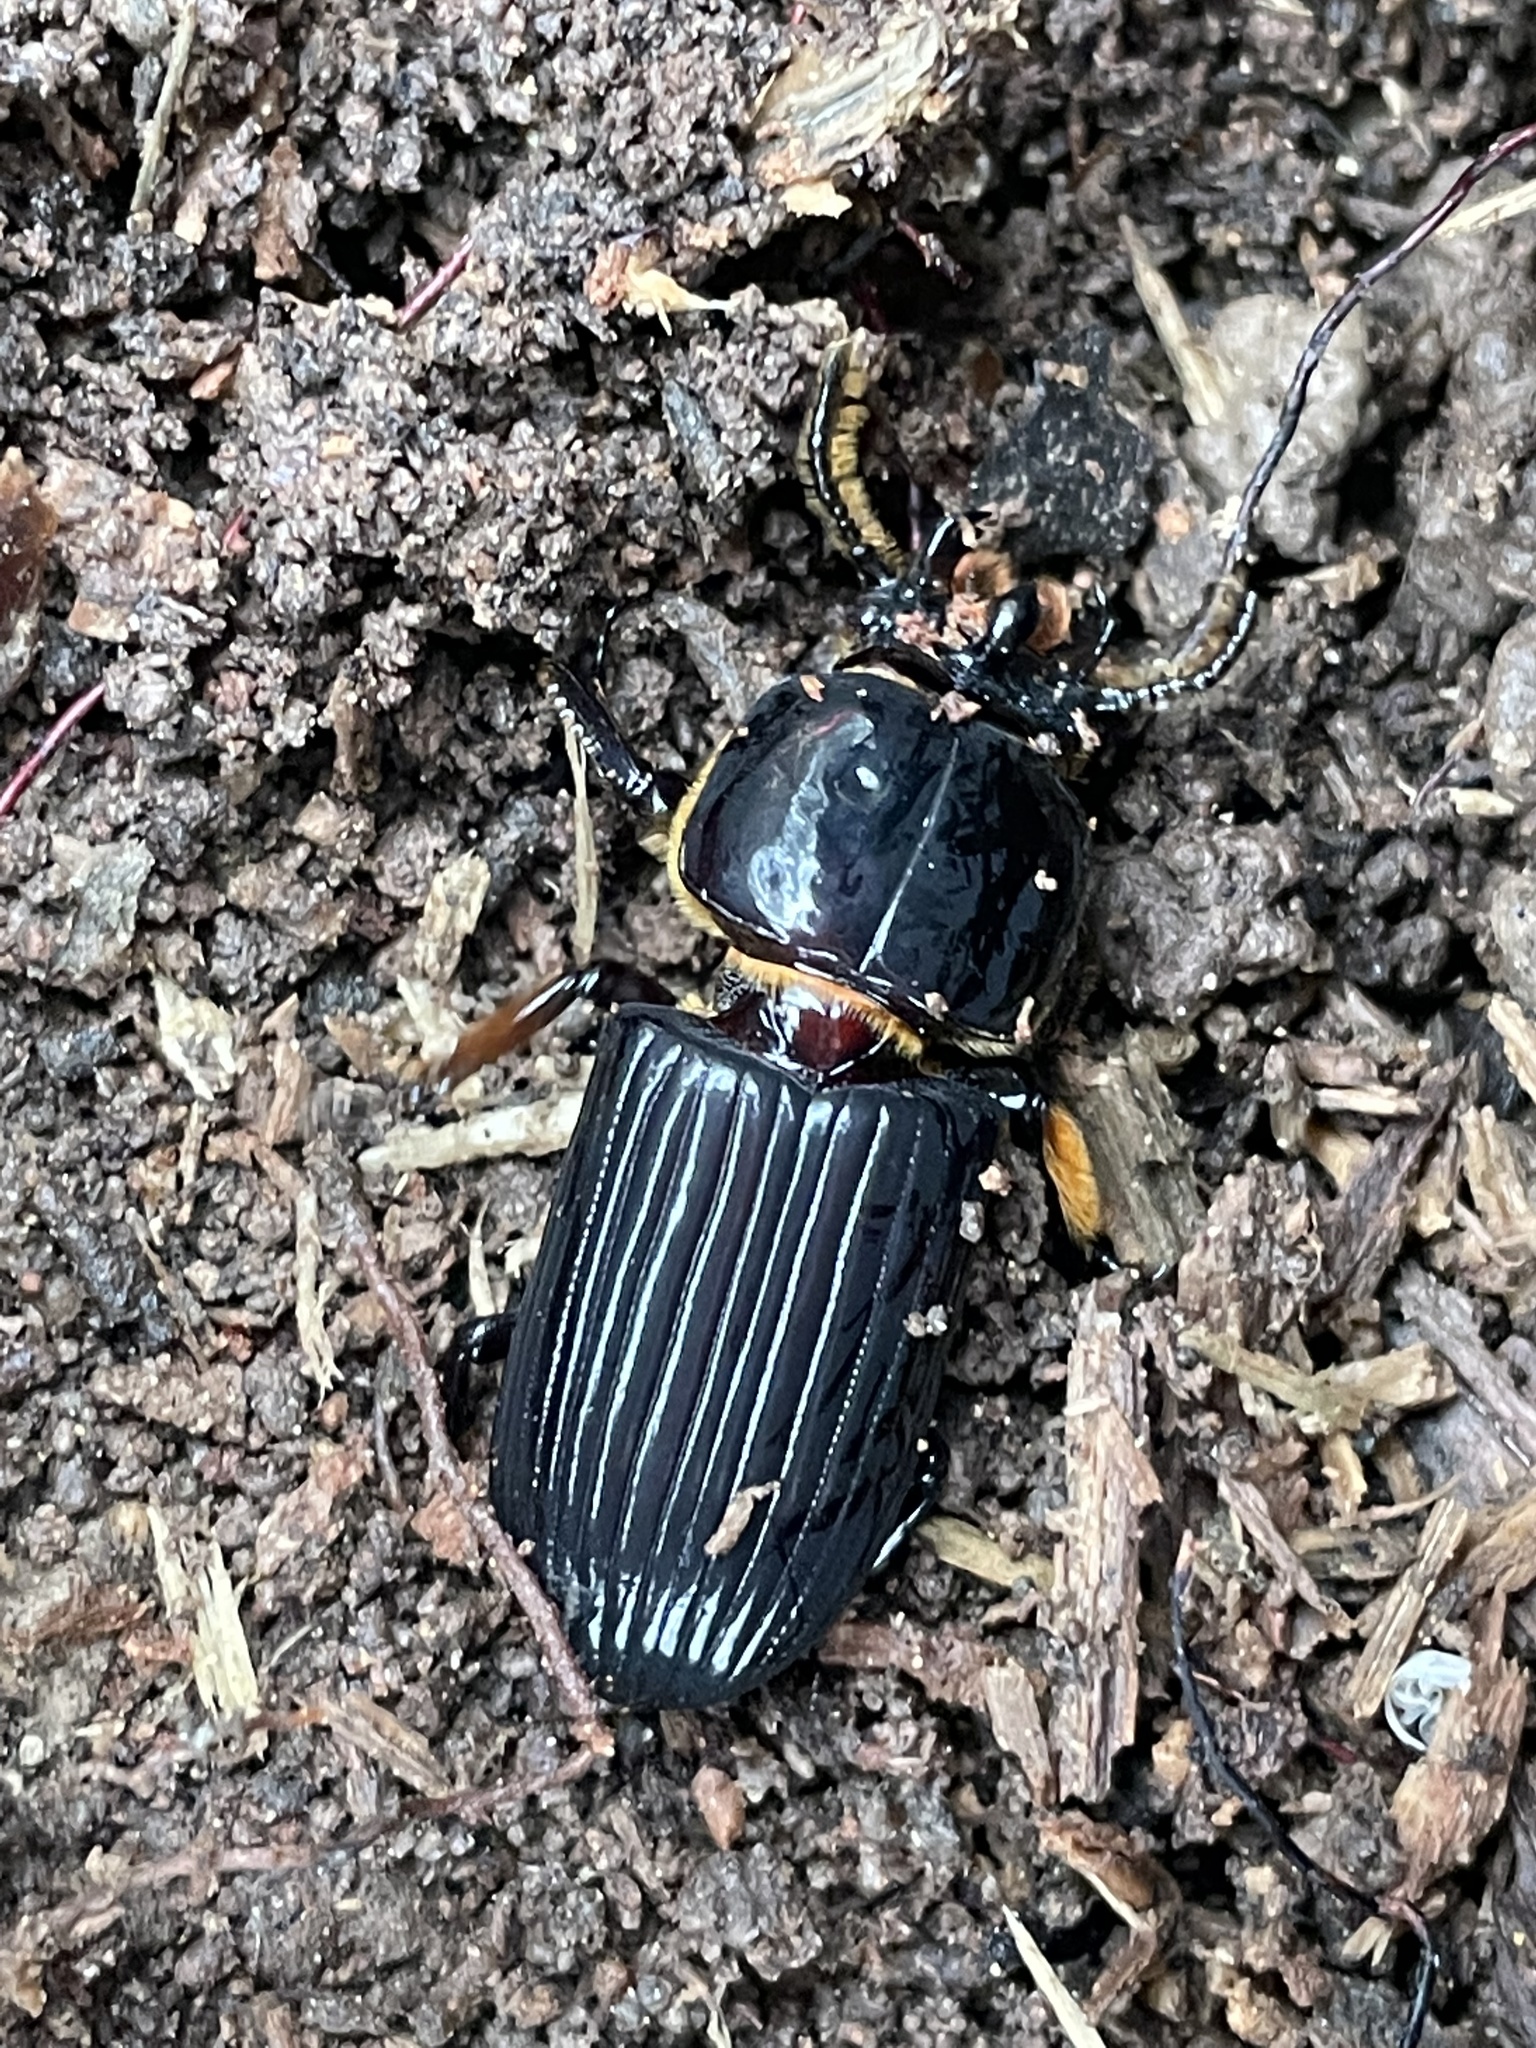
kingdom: Animalia
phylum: Arthropoda
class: Insecta
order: Coleoptera
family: Passalidae
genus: Odontotaenius
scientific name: Odontotaenius disjunctus
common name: Patent leather beetle
